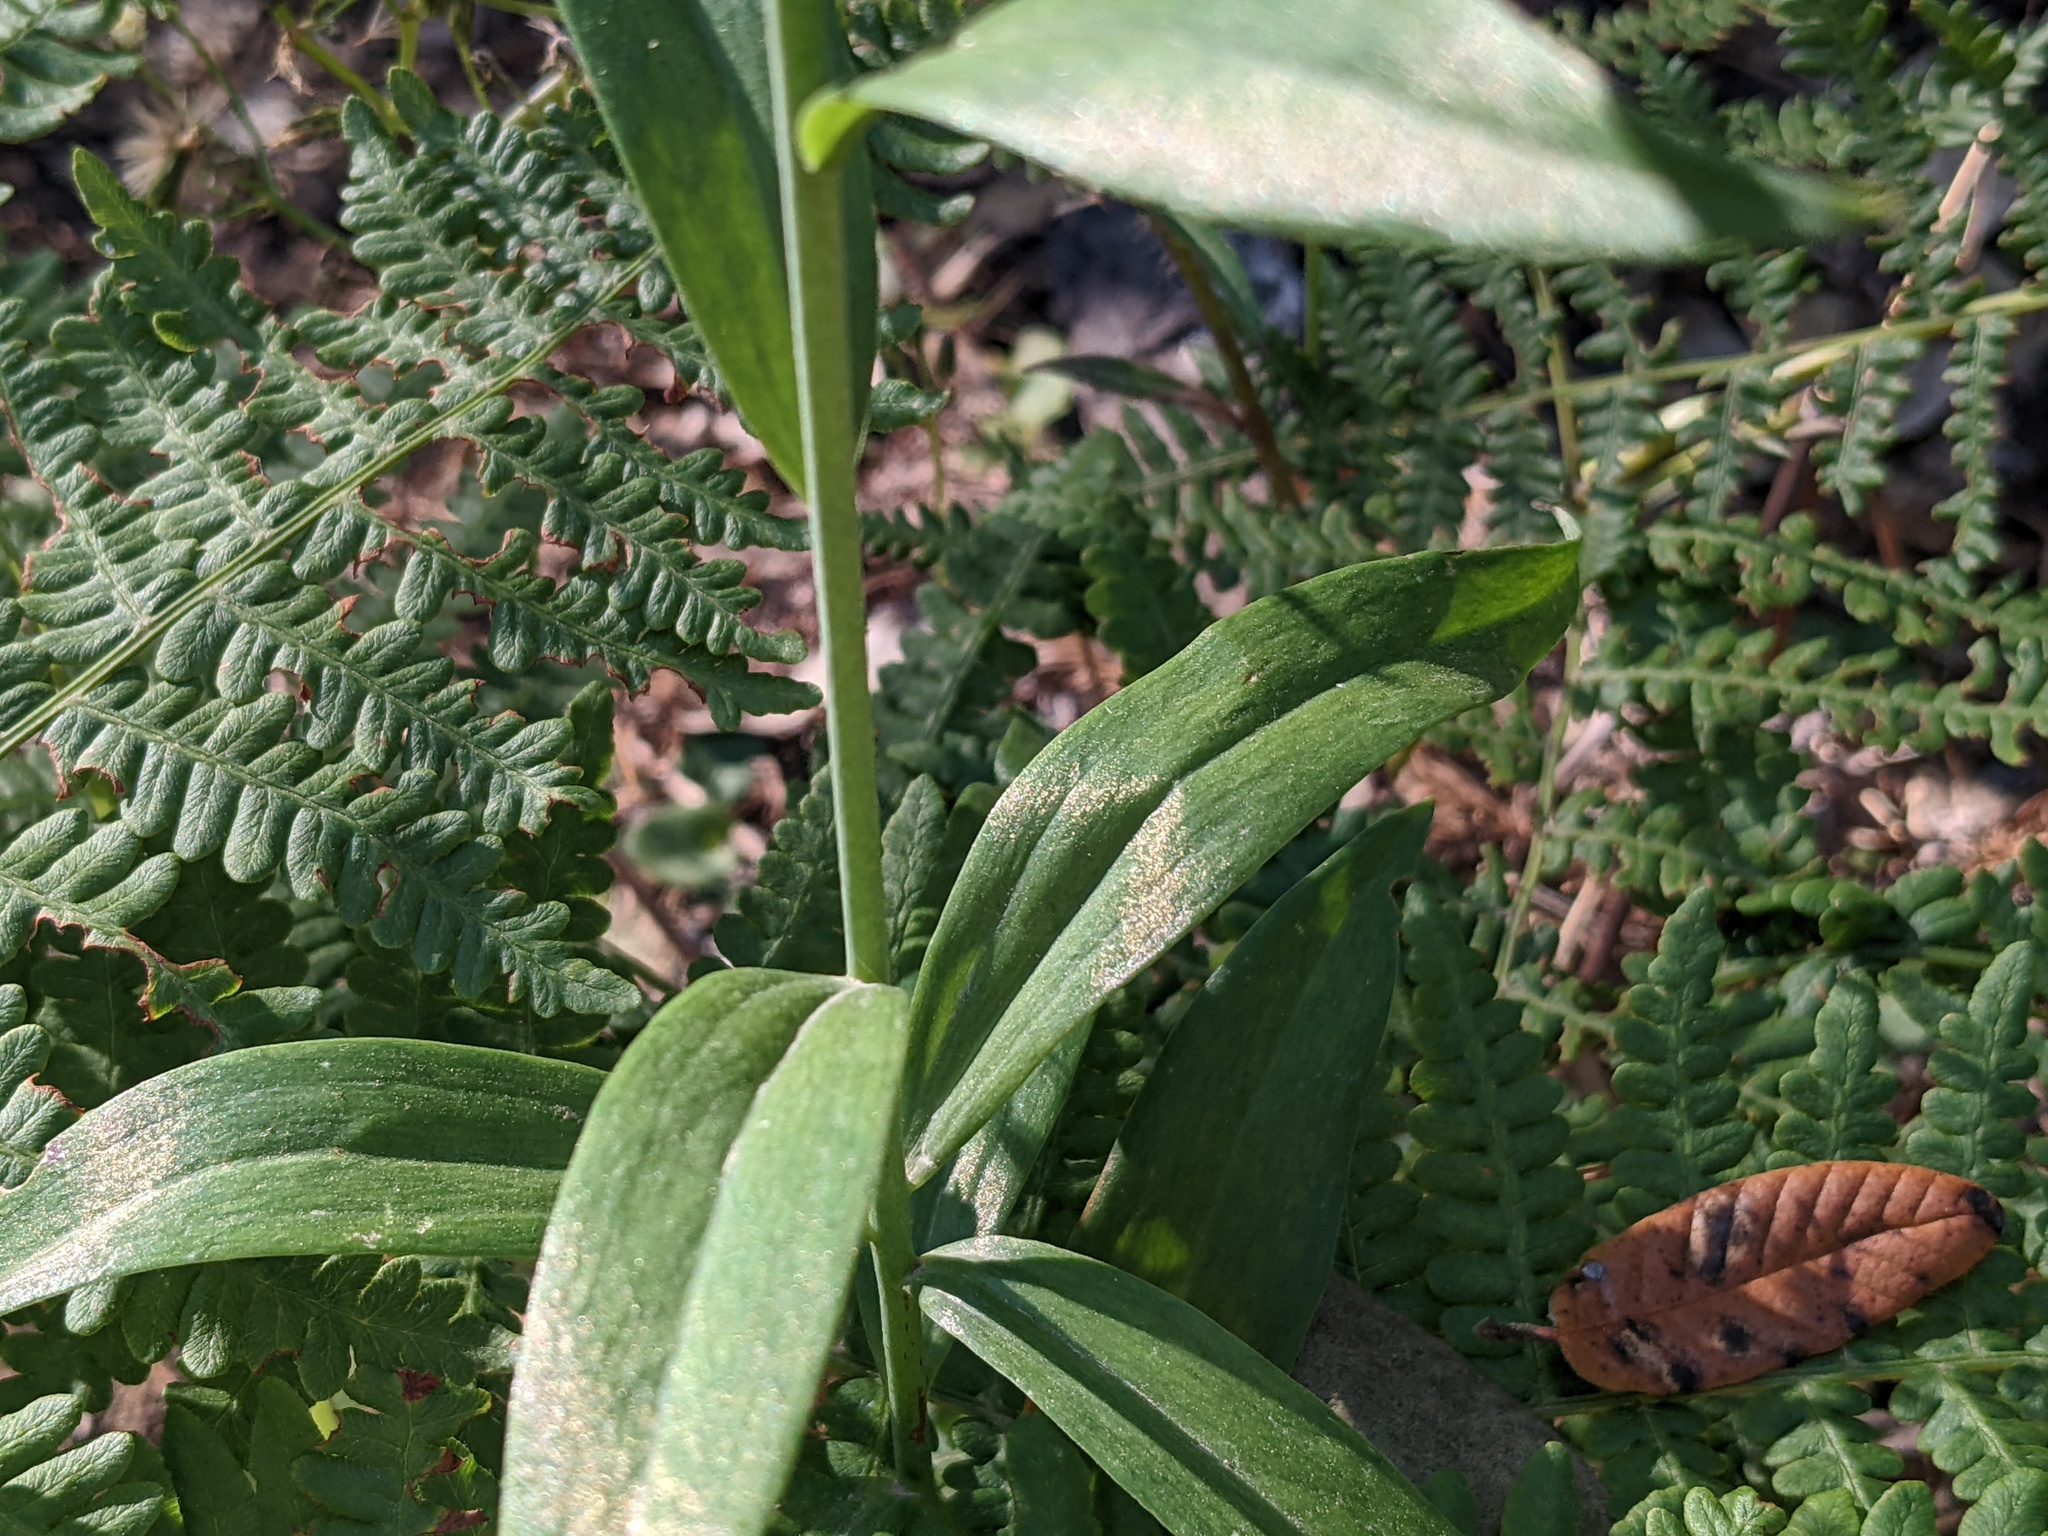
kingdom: Plantae
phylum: Tracheophyta
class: Liliopsida
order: Liliales
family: Liliaceae
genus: Lilium
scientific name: Lilium maritimum
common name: Coastal lily
